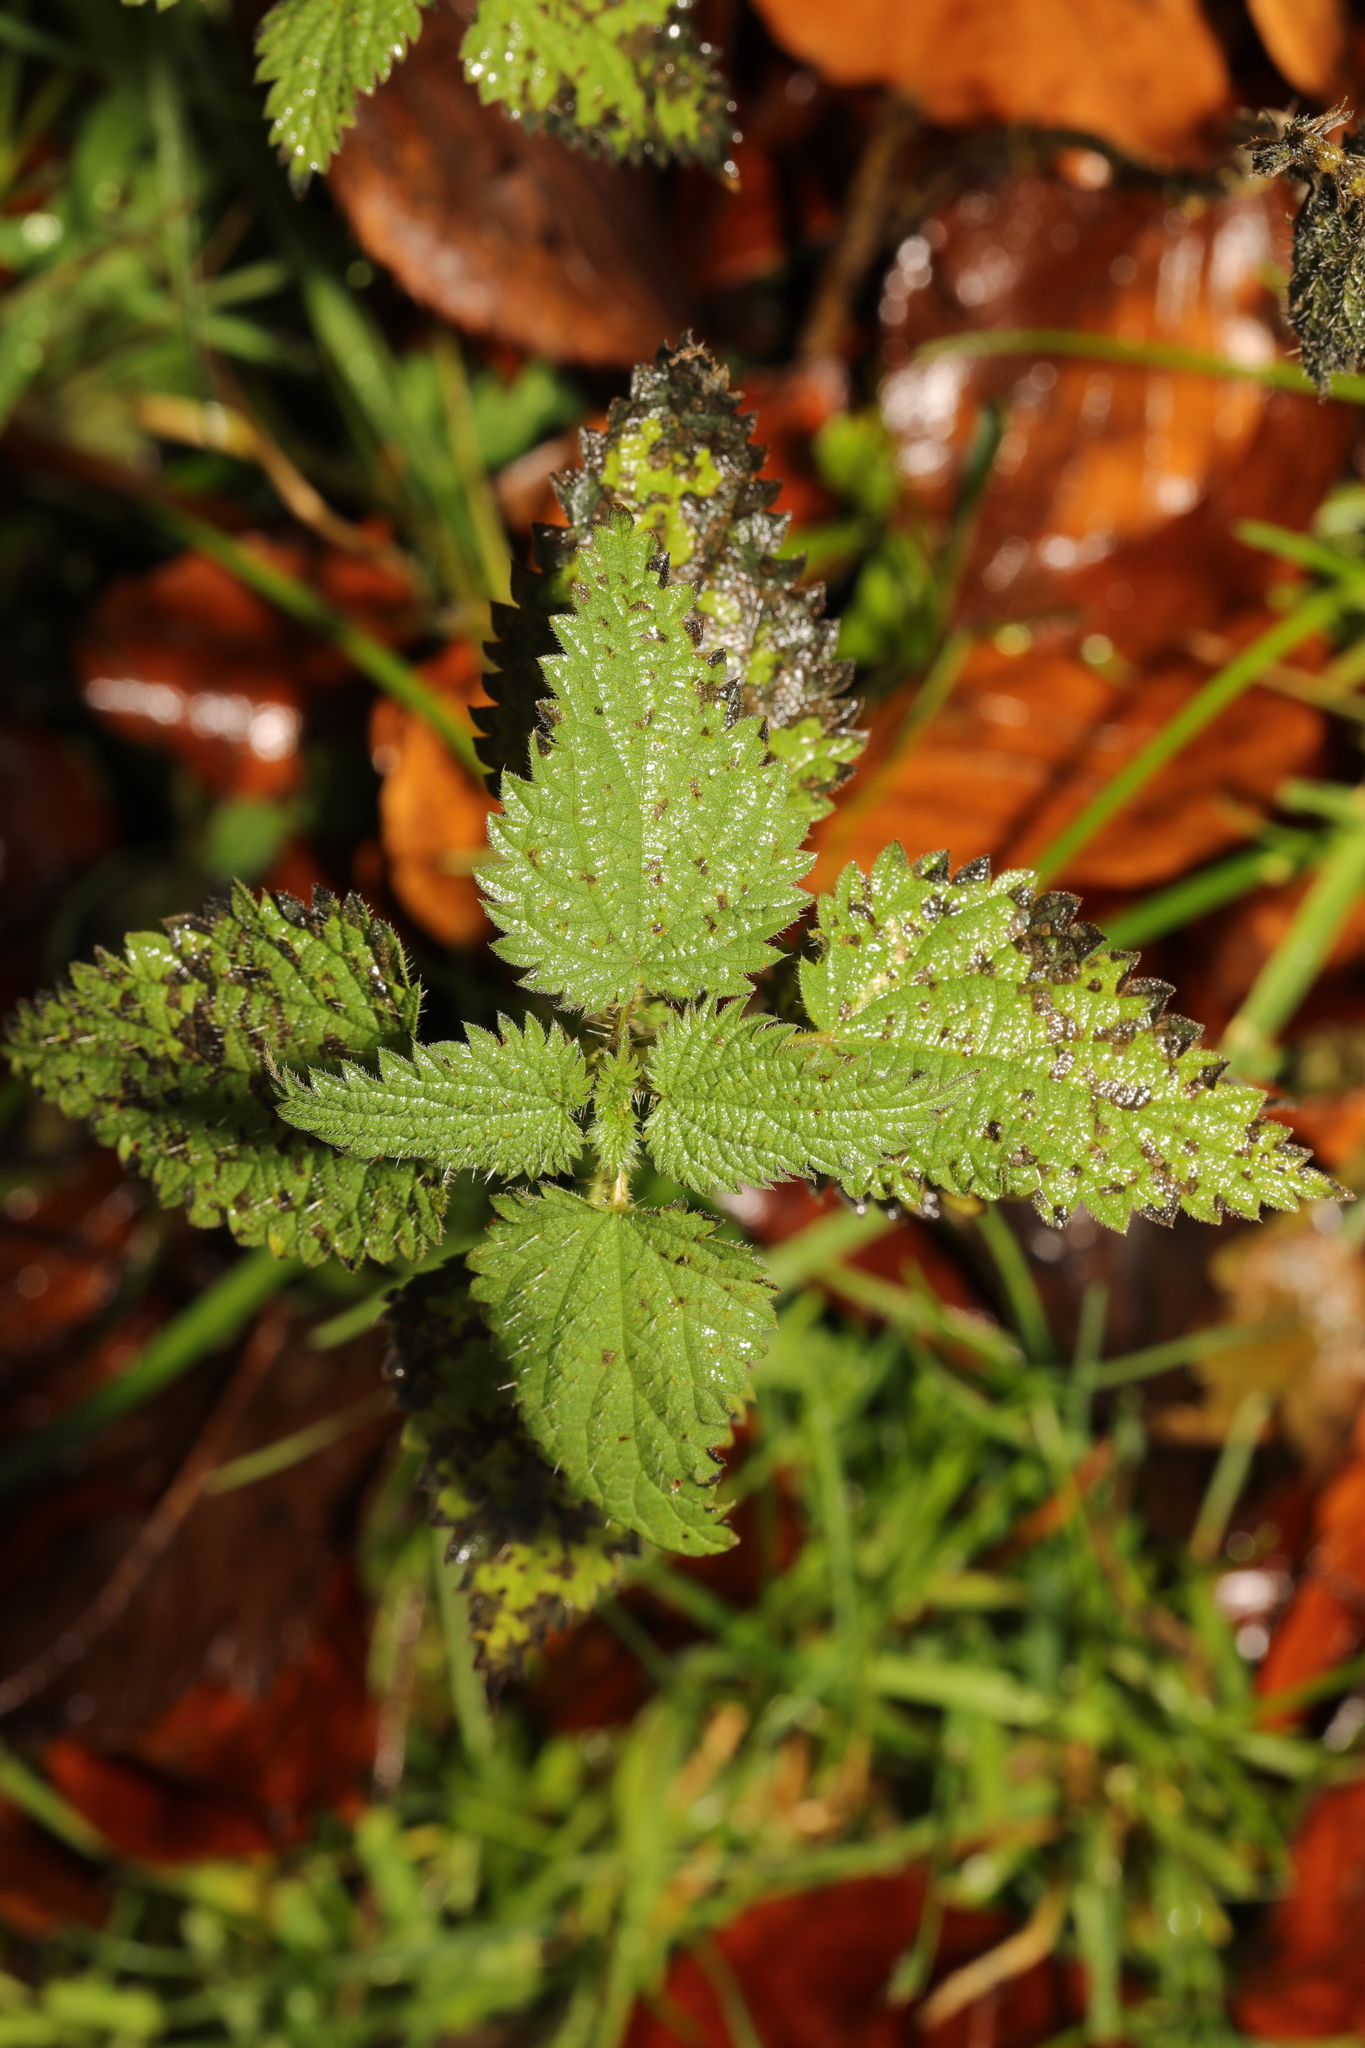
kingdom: Plantae
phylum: Tracheophyta
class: Magnoliopsida
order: Rosales
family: Urticaceae
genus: Urtica
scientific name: Urtica dioica
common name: Common nettle
